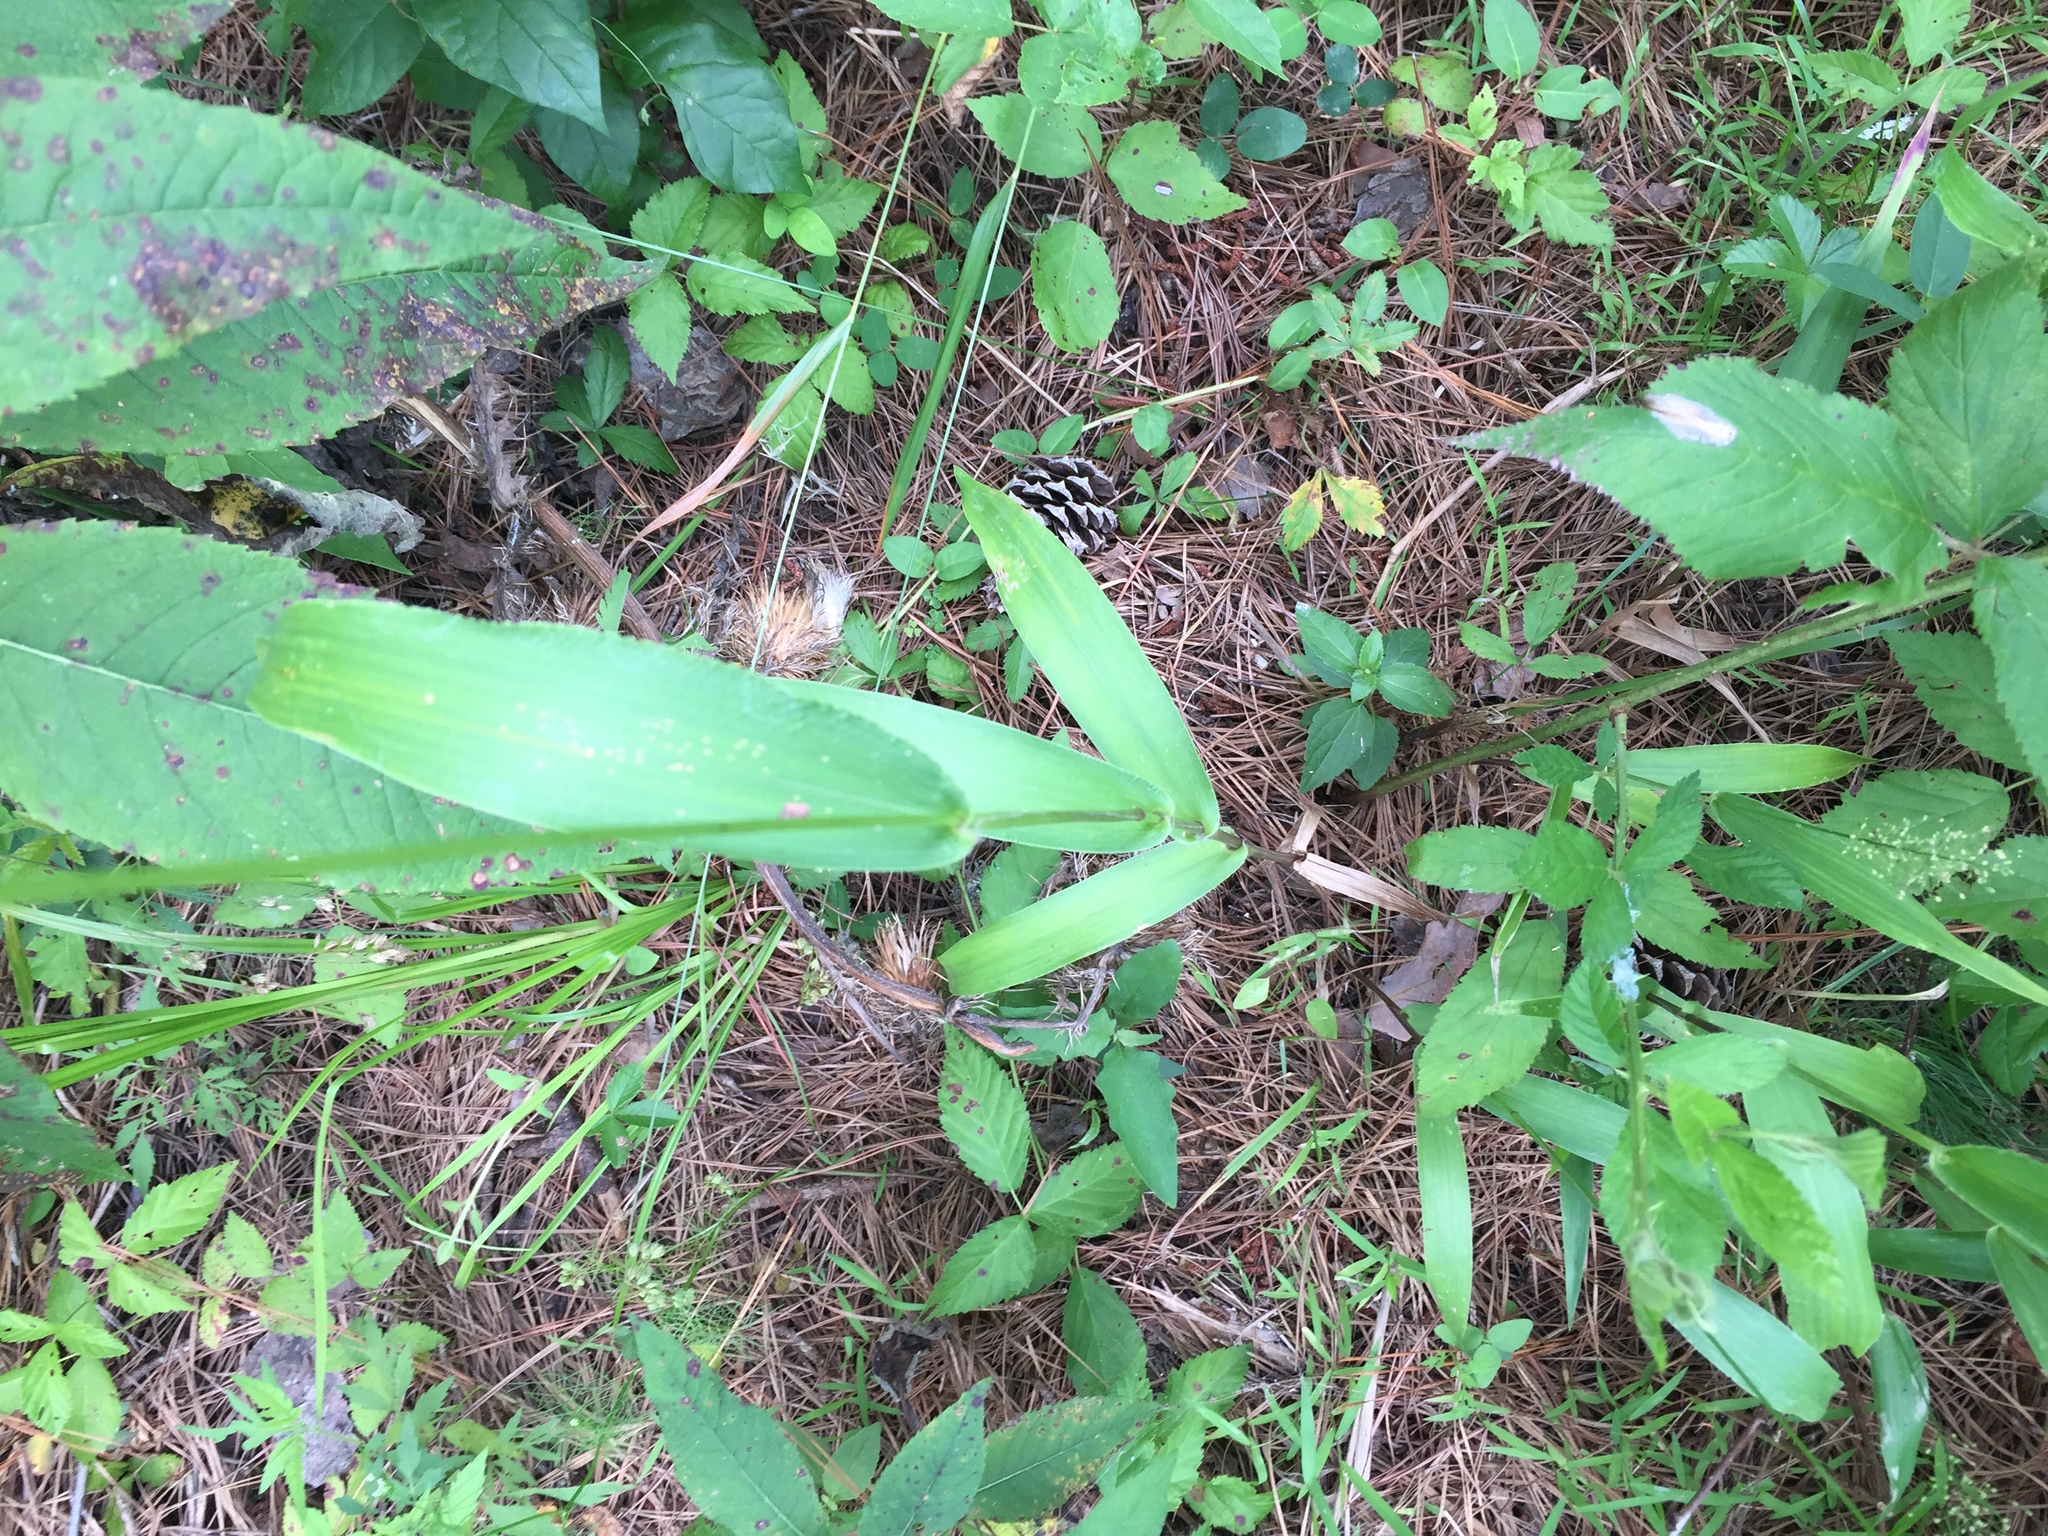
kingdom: Plantae
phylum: Tracheophyta
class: Liliopsida
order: Poales
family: Poaceae
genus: Dichanthelium
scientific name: Dichanthelium polyanthes
